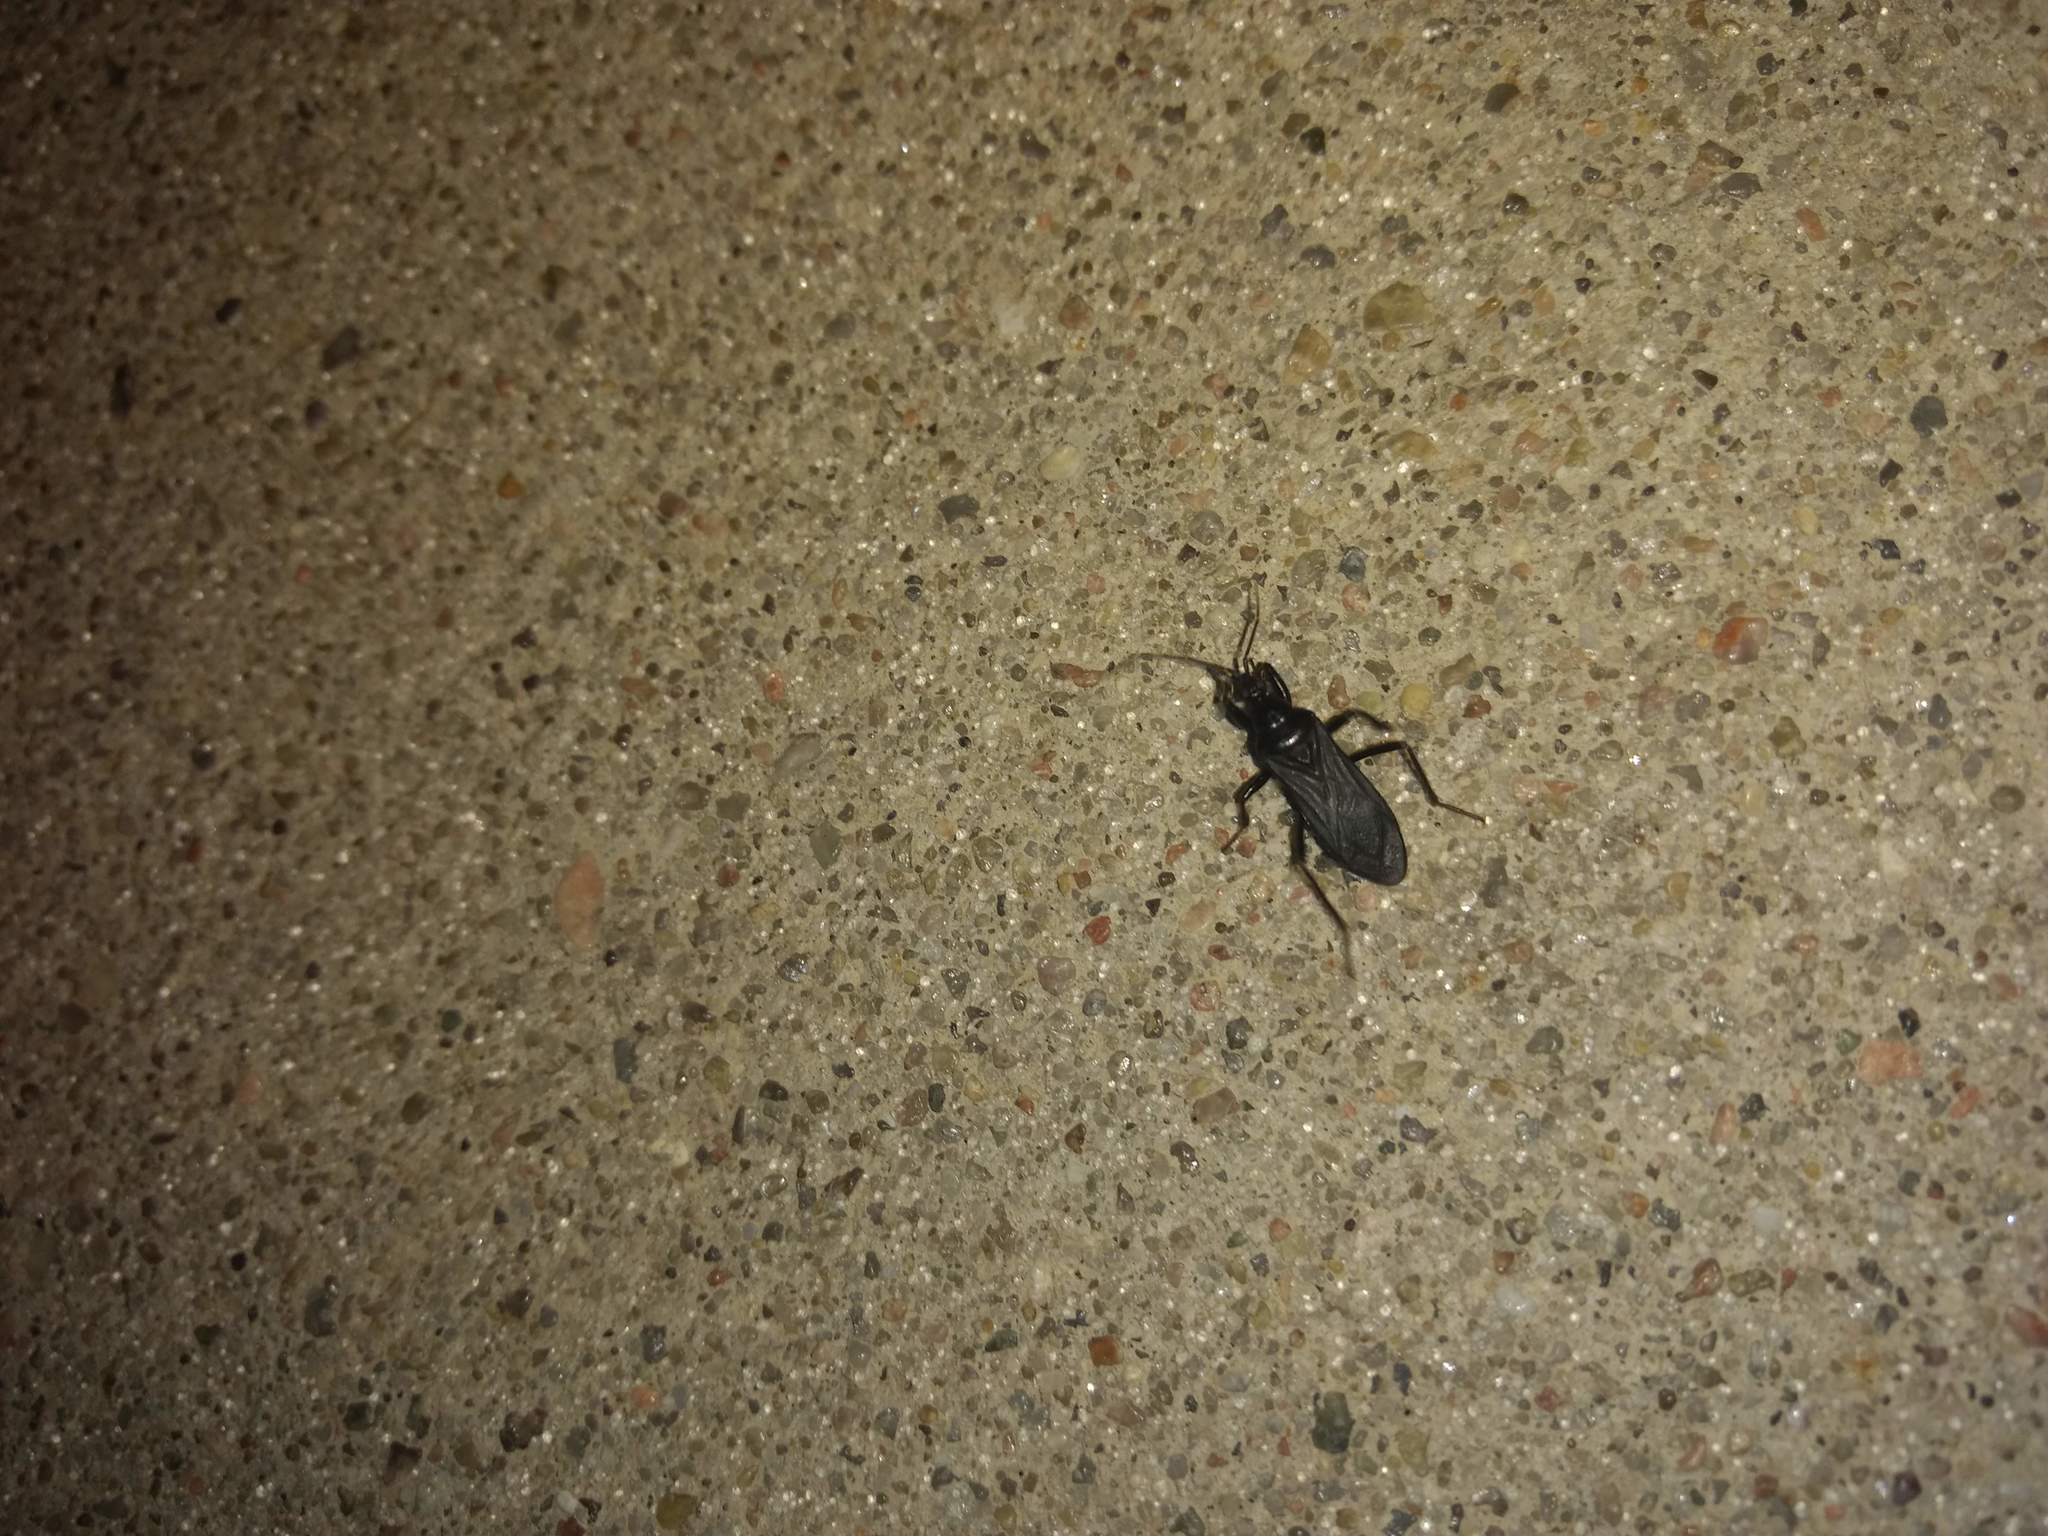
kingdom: Animalia
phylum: Arthropoda
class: Insecta
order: Hemiptera
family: Reduviidae
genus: Melanolestes
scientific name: Melanolestes picipes
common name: Assassin bug
